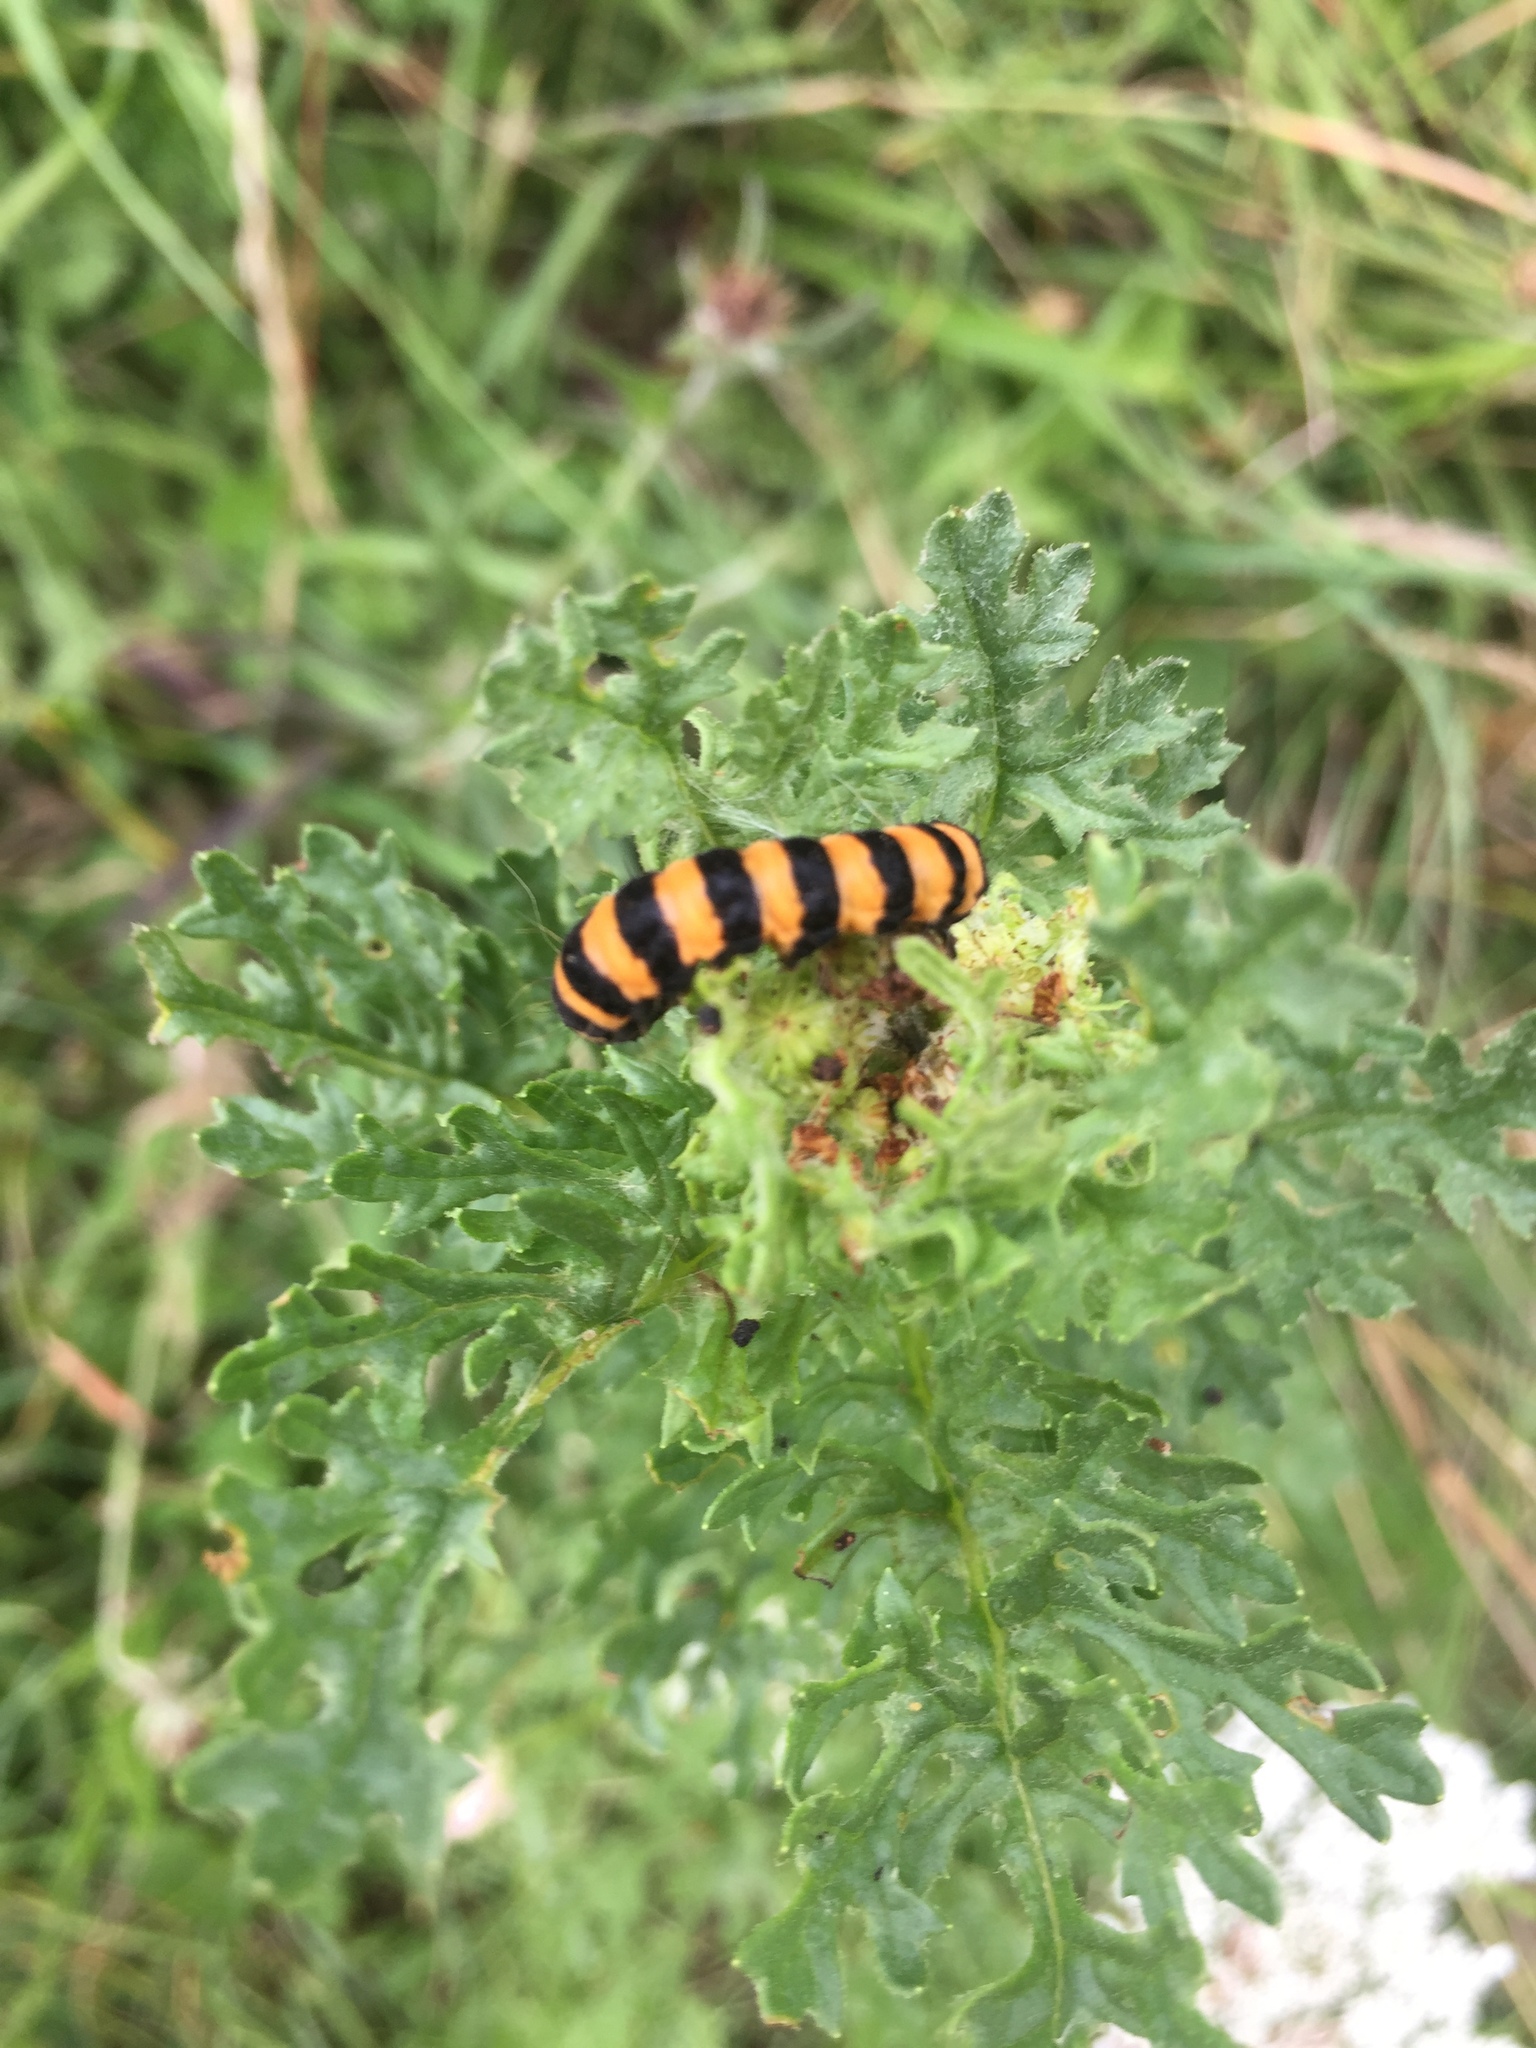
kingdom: Animalia
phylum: Arthropoda
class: Insecta
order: Lepidoptera
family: Erebidae
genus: Tyria
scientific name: Tyria jacobaeae
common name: Cinnabar
